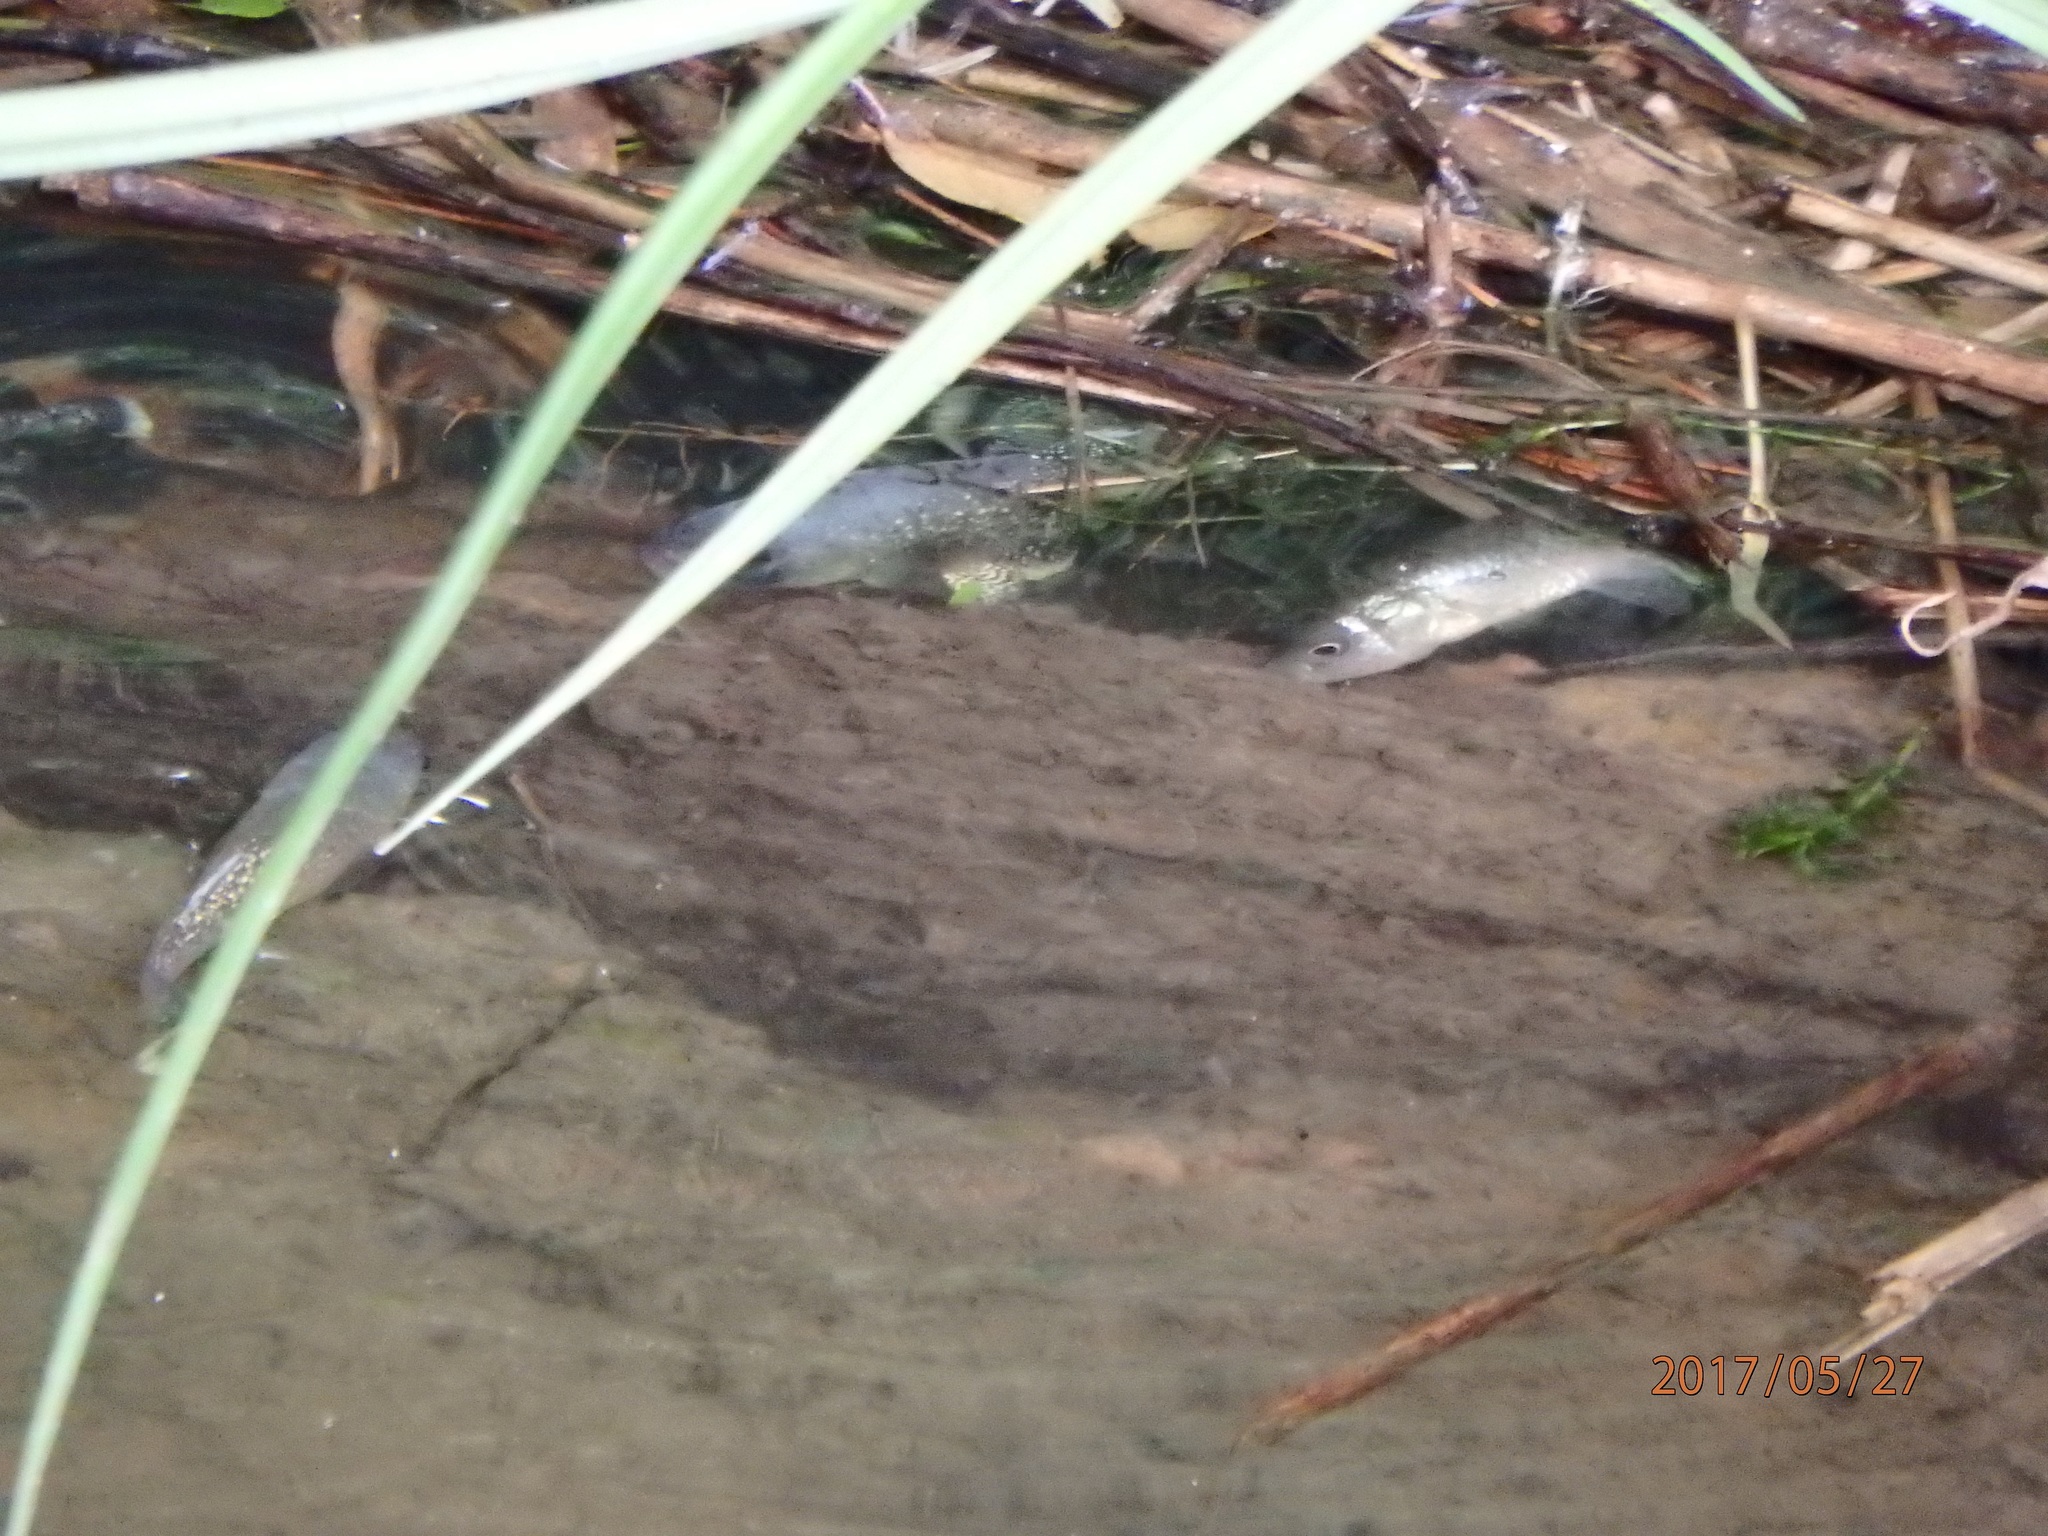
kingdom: Animalia
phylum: Chordata
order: Cyprinodontiformes
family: Fundulidae
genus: Fundulus
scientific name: Fundulus heteroclitus
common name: Mummichog
